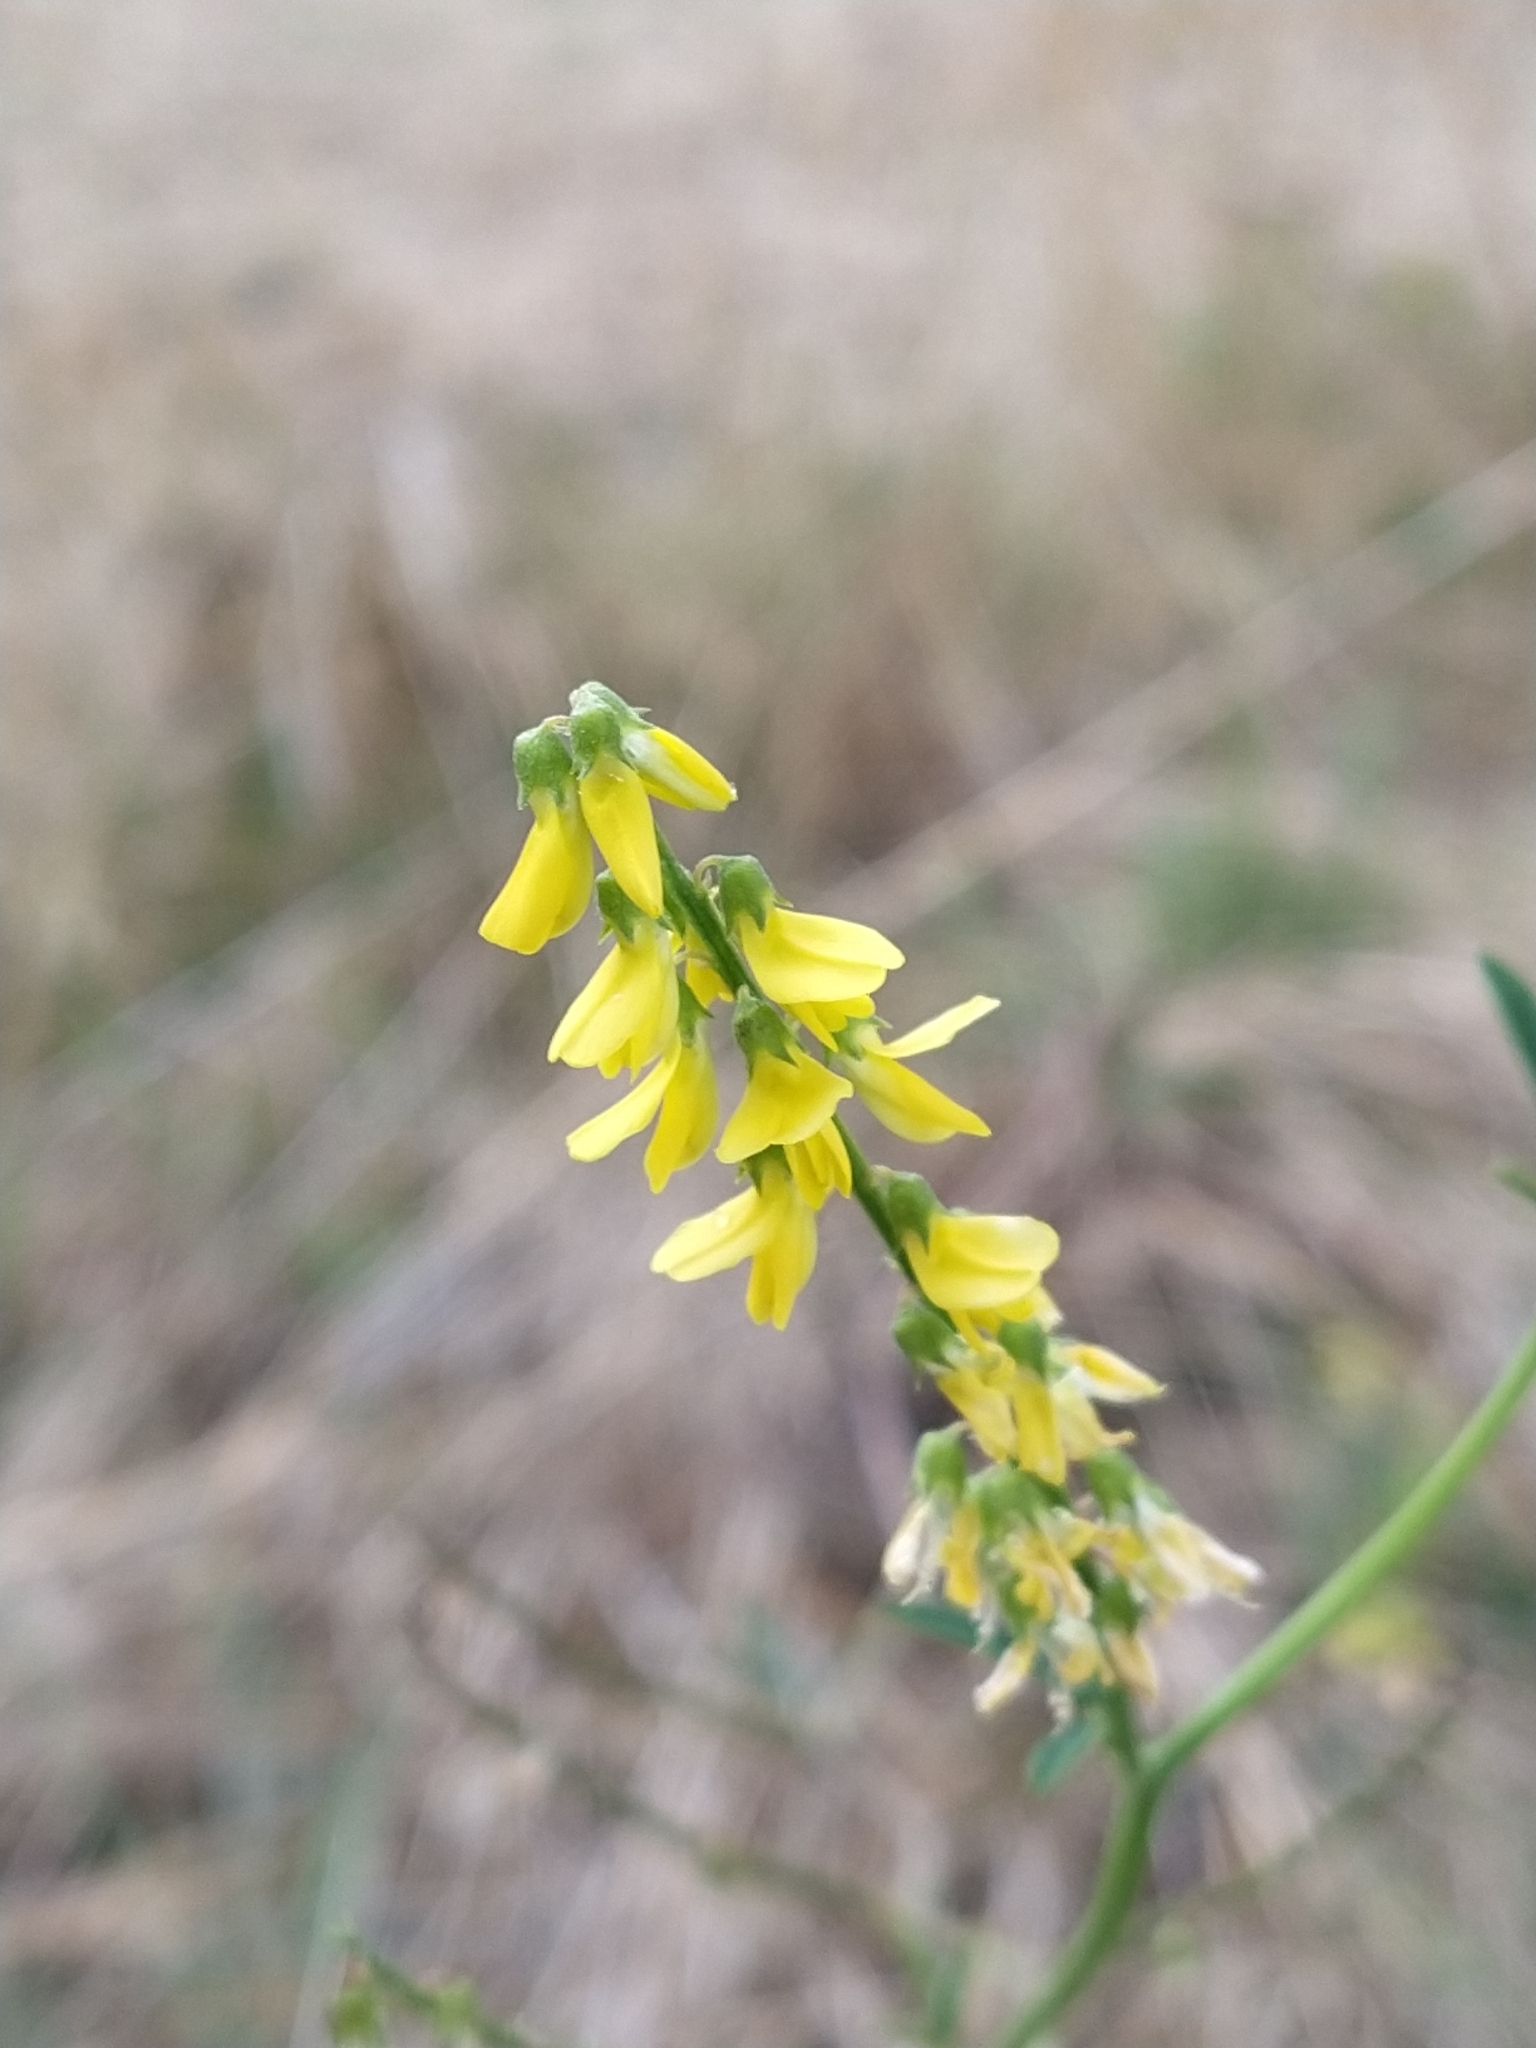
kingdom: Plantae
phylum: Tracheophyta
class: Magnoliopsida
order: Fabales
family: Fabaceae
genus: Melilotus
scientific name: Melilotus officinalis
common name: Sweetclover
